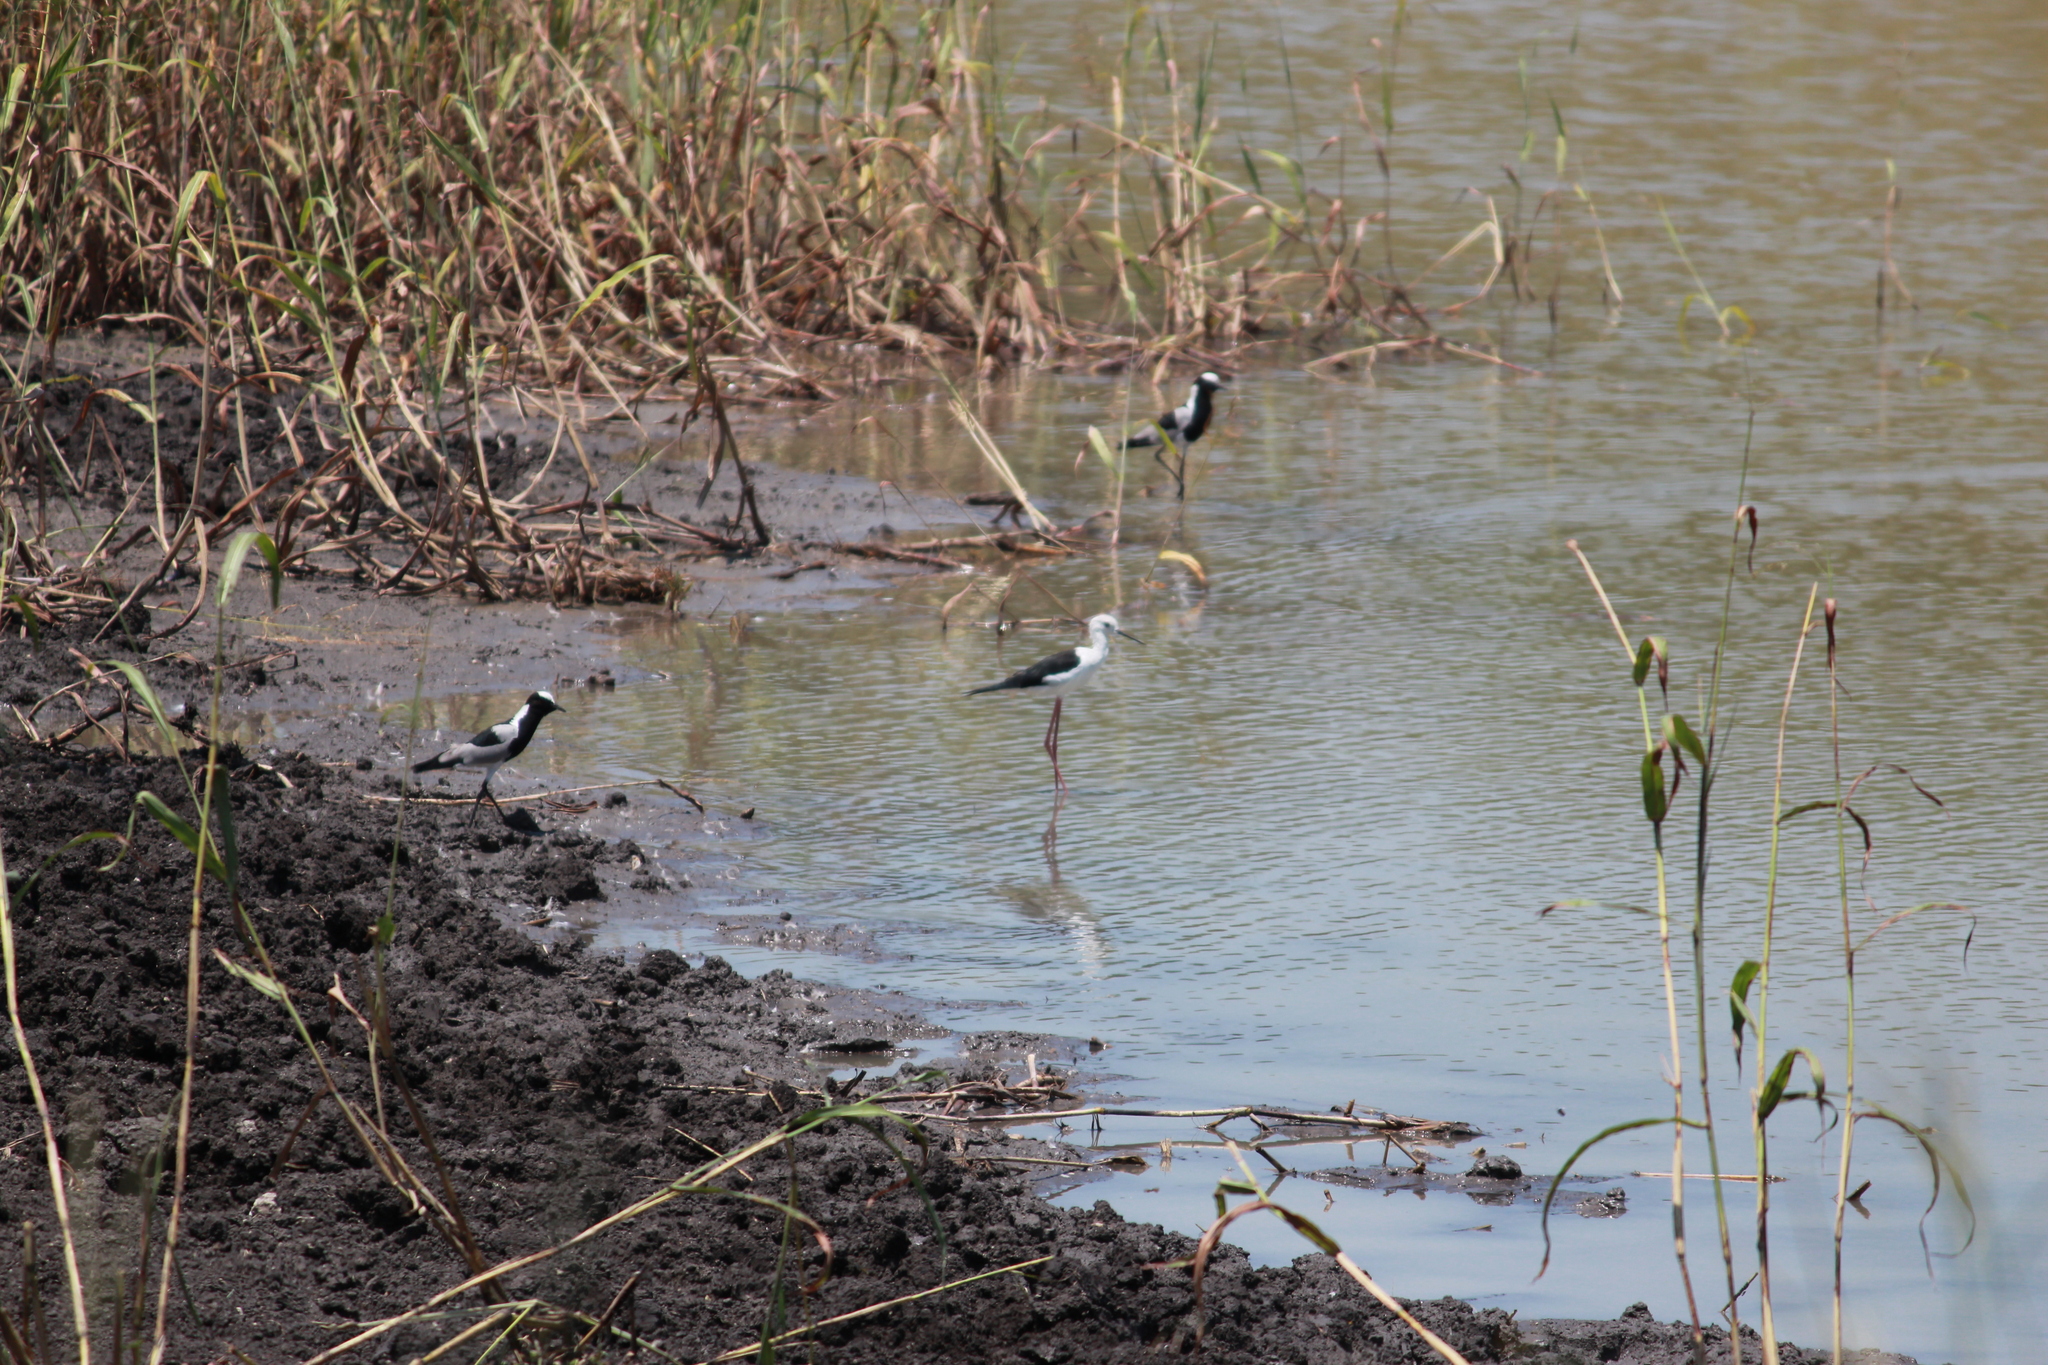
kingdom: Animalia
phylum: Chordata
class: Aves
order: Charadriiformes
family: Charadriidae
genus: Vanellus
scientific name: Vanellus armatus
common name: Blacksmith lapwing
